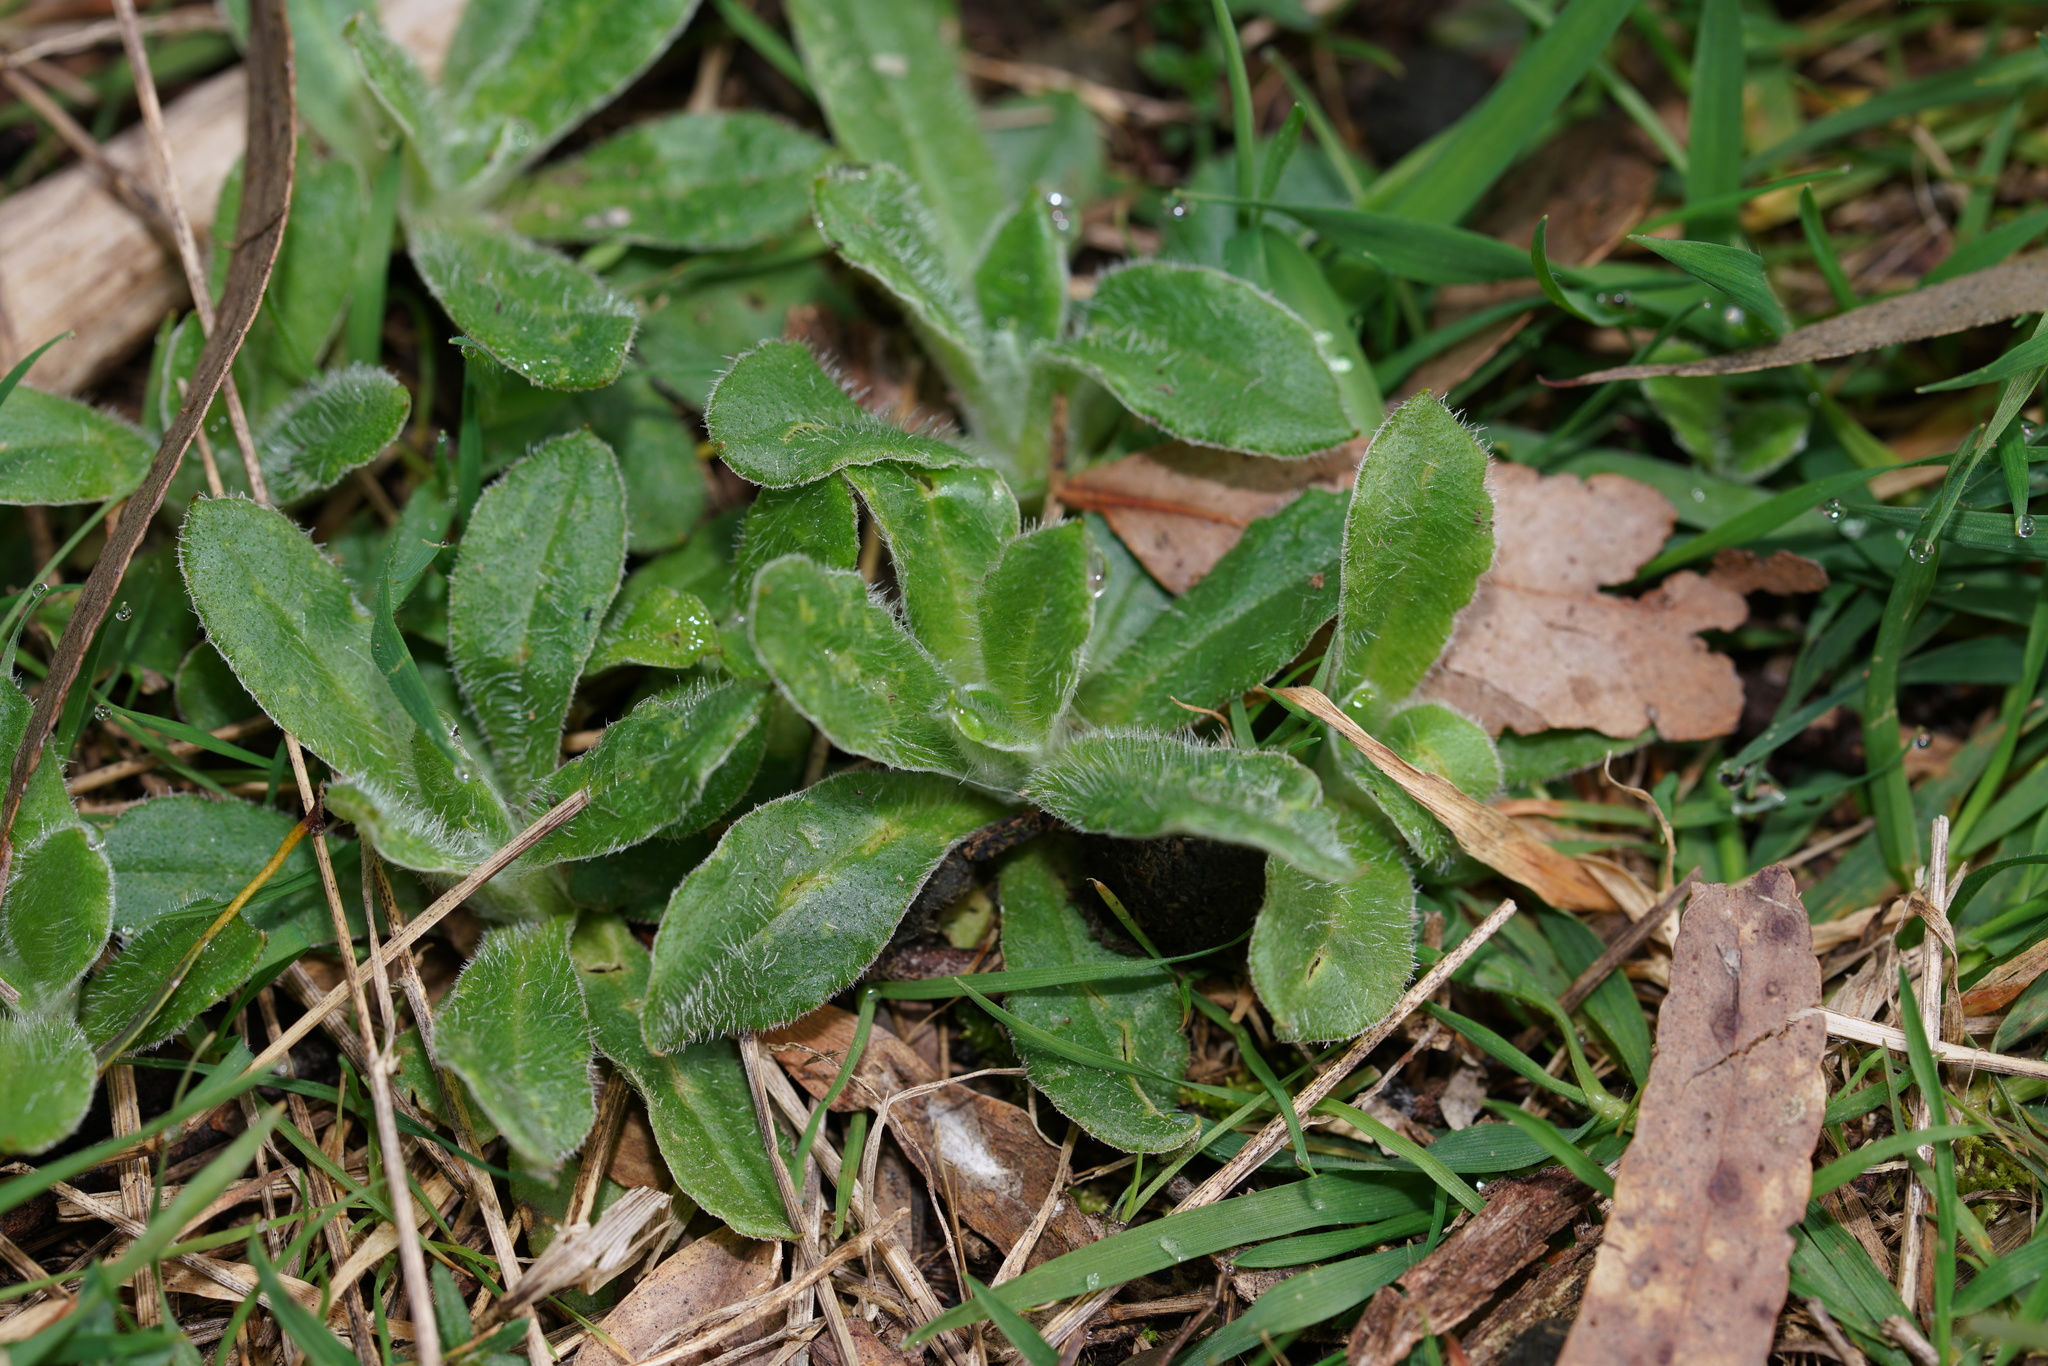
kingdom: Plantae
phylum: Tracheophyta
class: Magnoliopsida
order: Asterales
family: Asteraceae
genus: Coronidium
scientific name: Coronidium scorpioides
